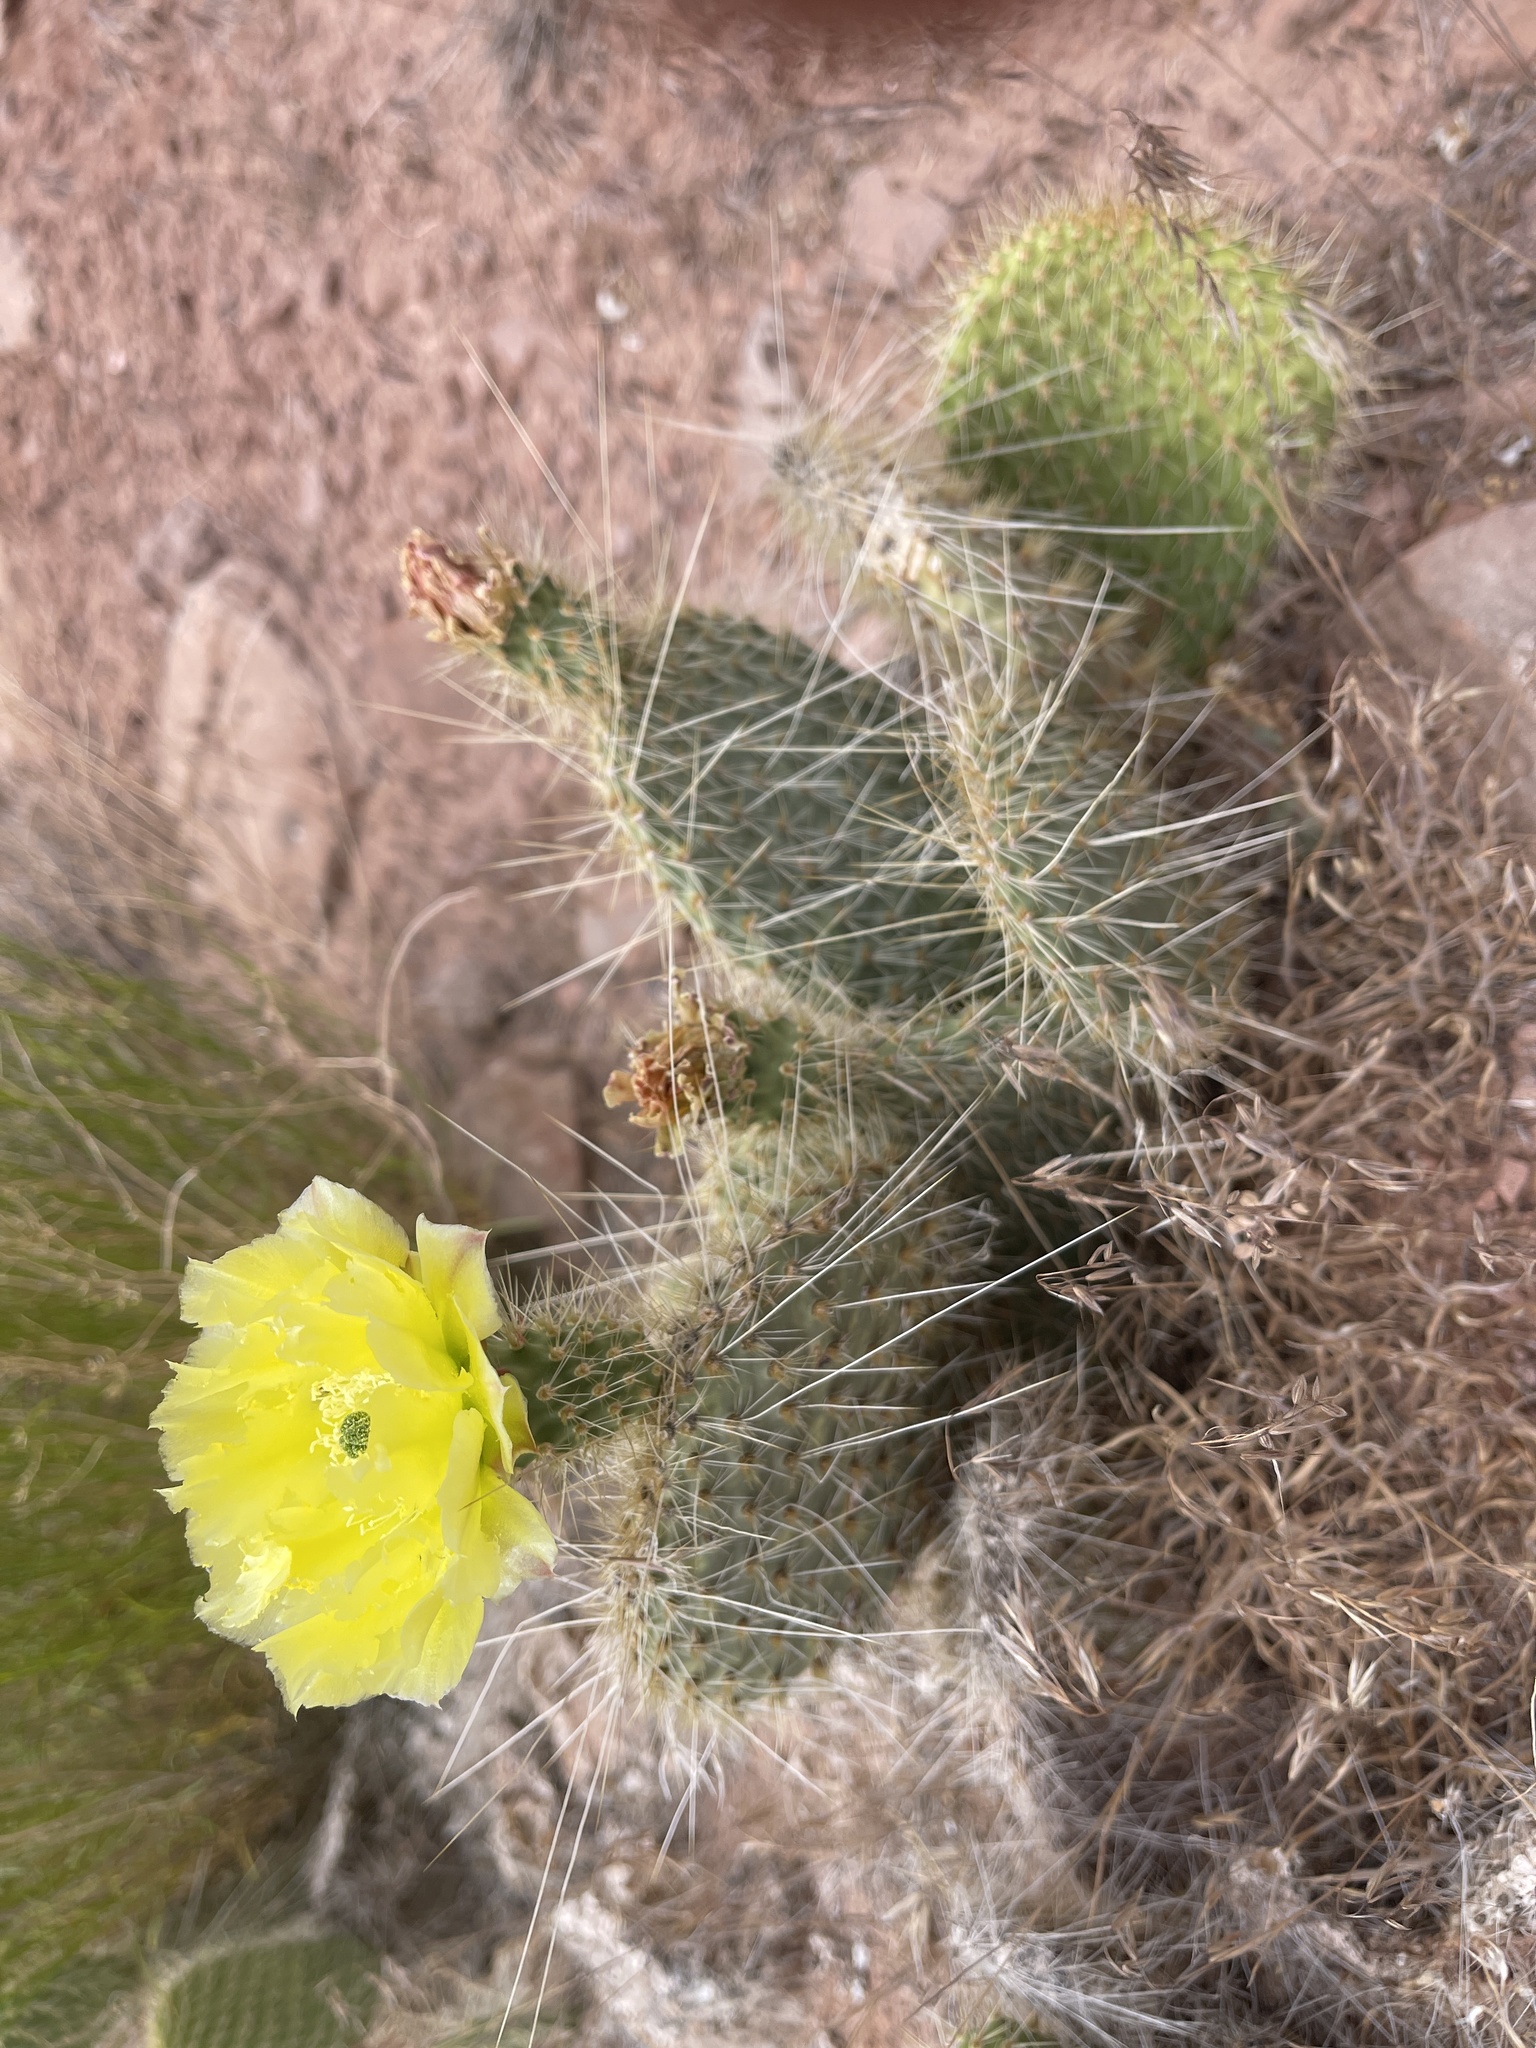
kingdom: Plantae
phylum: Tracheophyta
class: Magnoliopsida
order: Caryophyllales
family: Cactaceae
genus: Opuntia
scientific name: Opuntia polyacantha
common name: Plains prickly-pear
